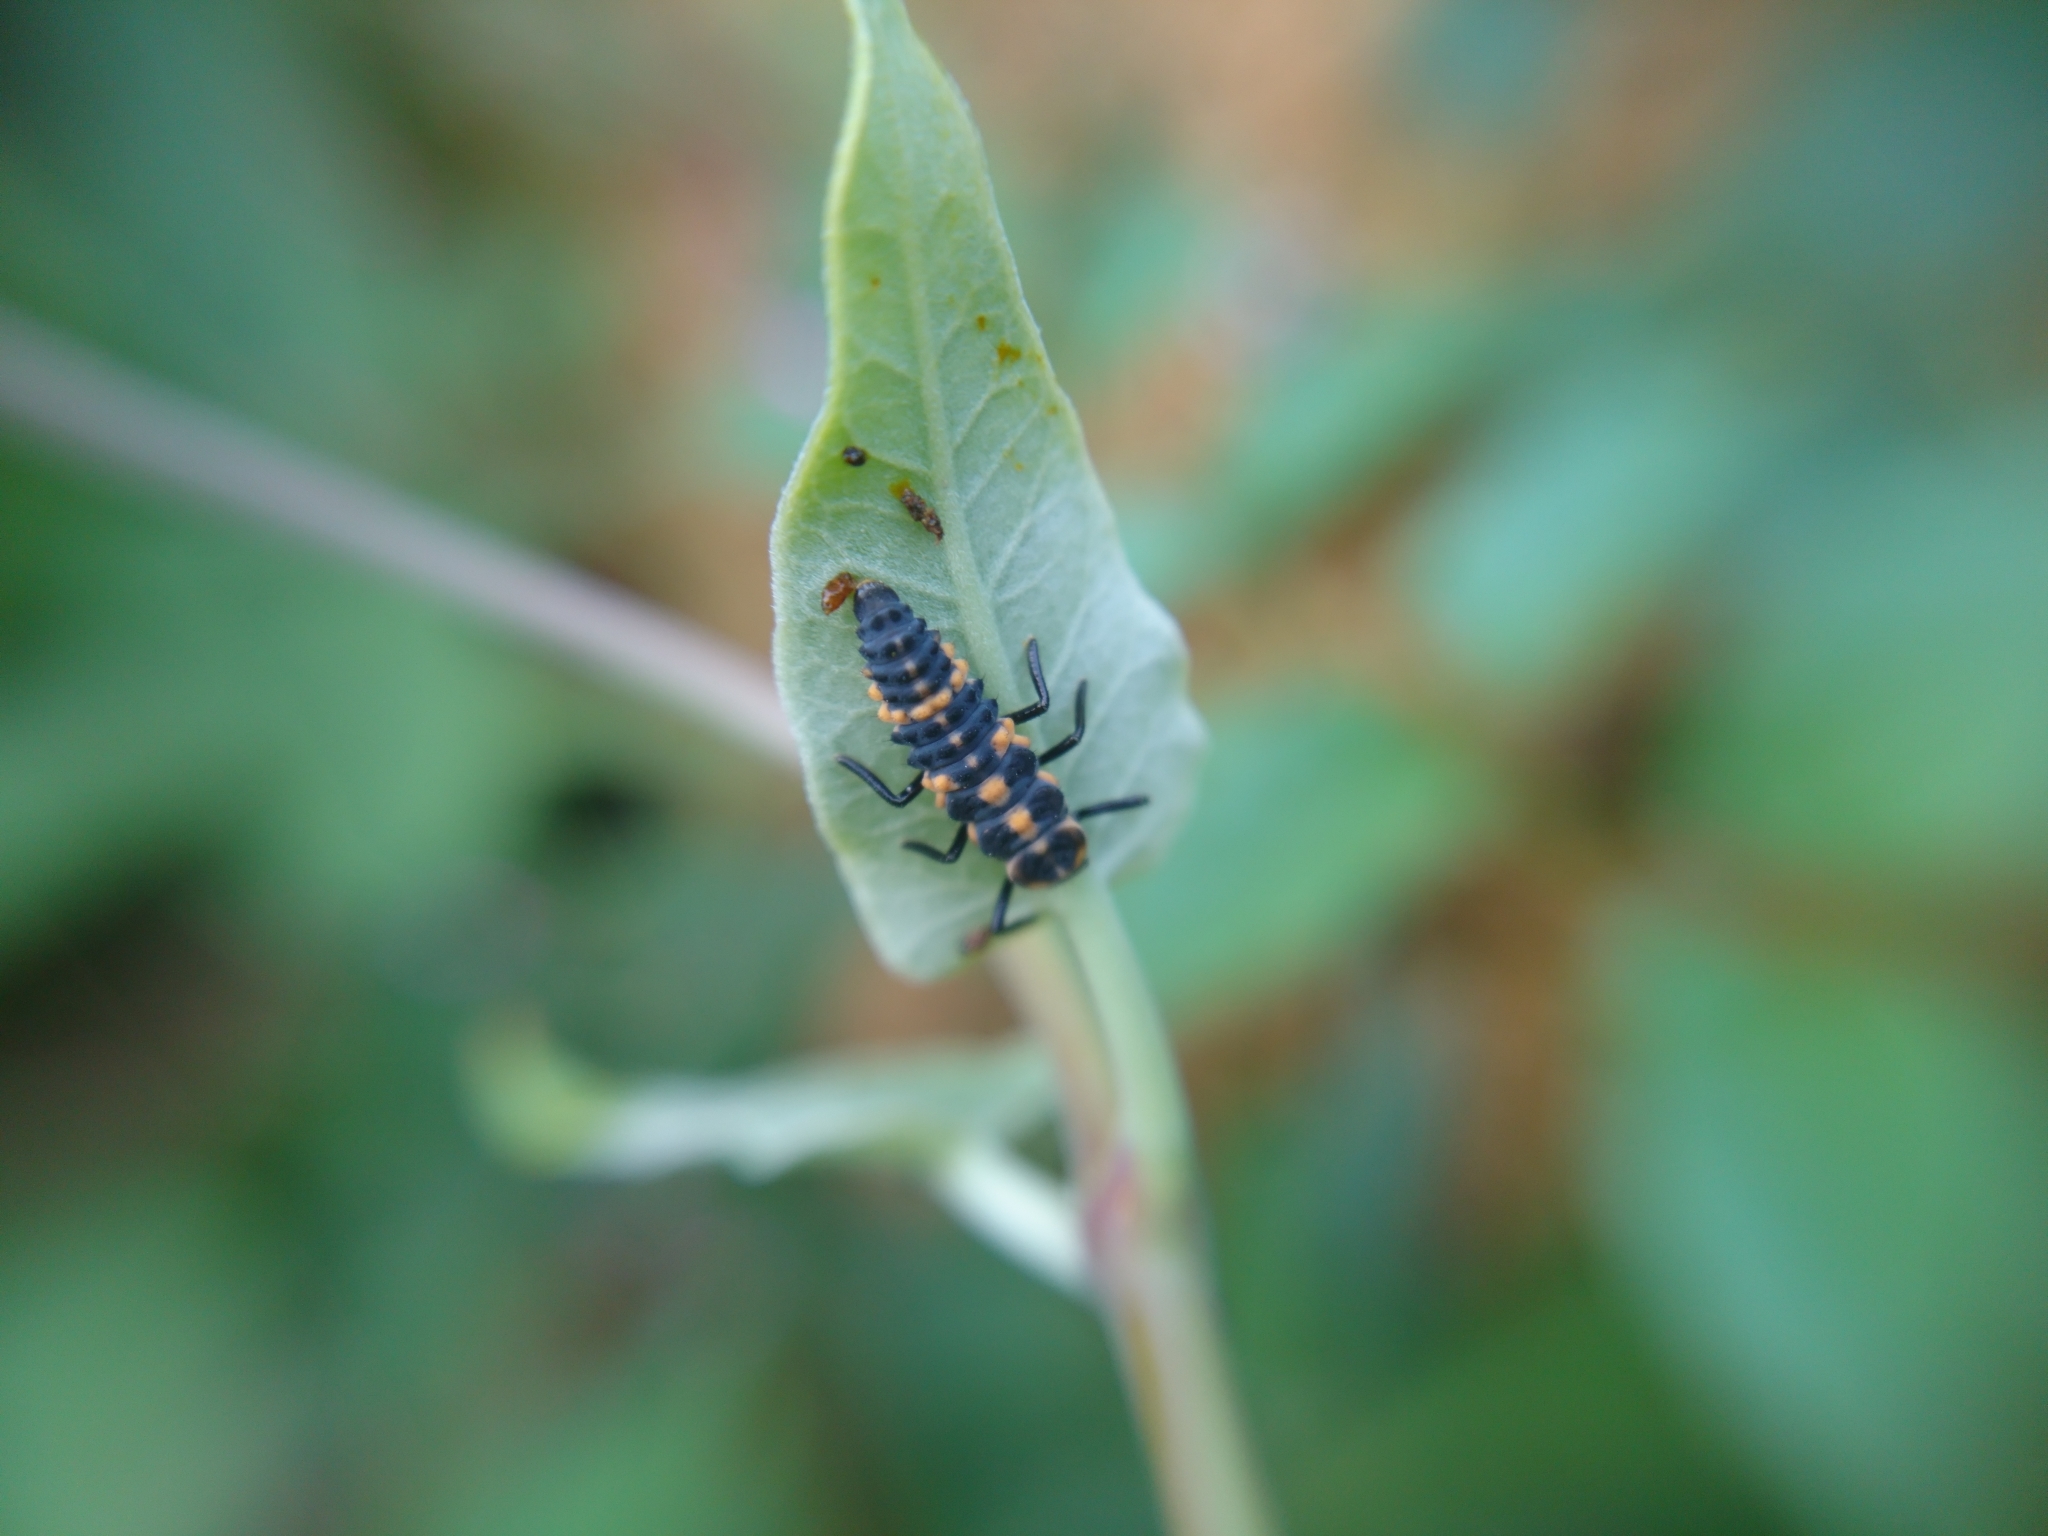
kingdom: Animalia
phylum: Arthropoda
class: Insecta
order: Coleoptera
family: Coccinellidae
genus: Olla
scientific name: Olla v-nigrum
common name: Ashy gray lady beetle
